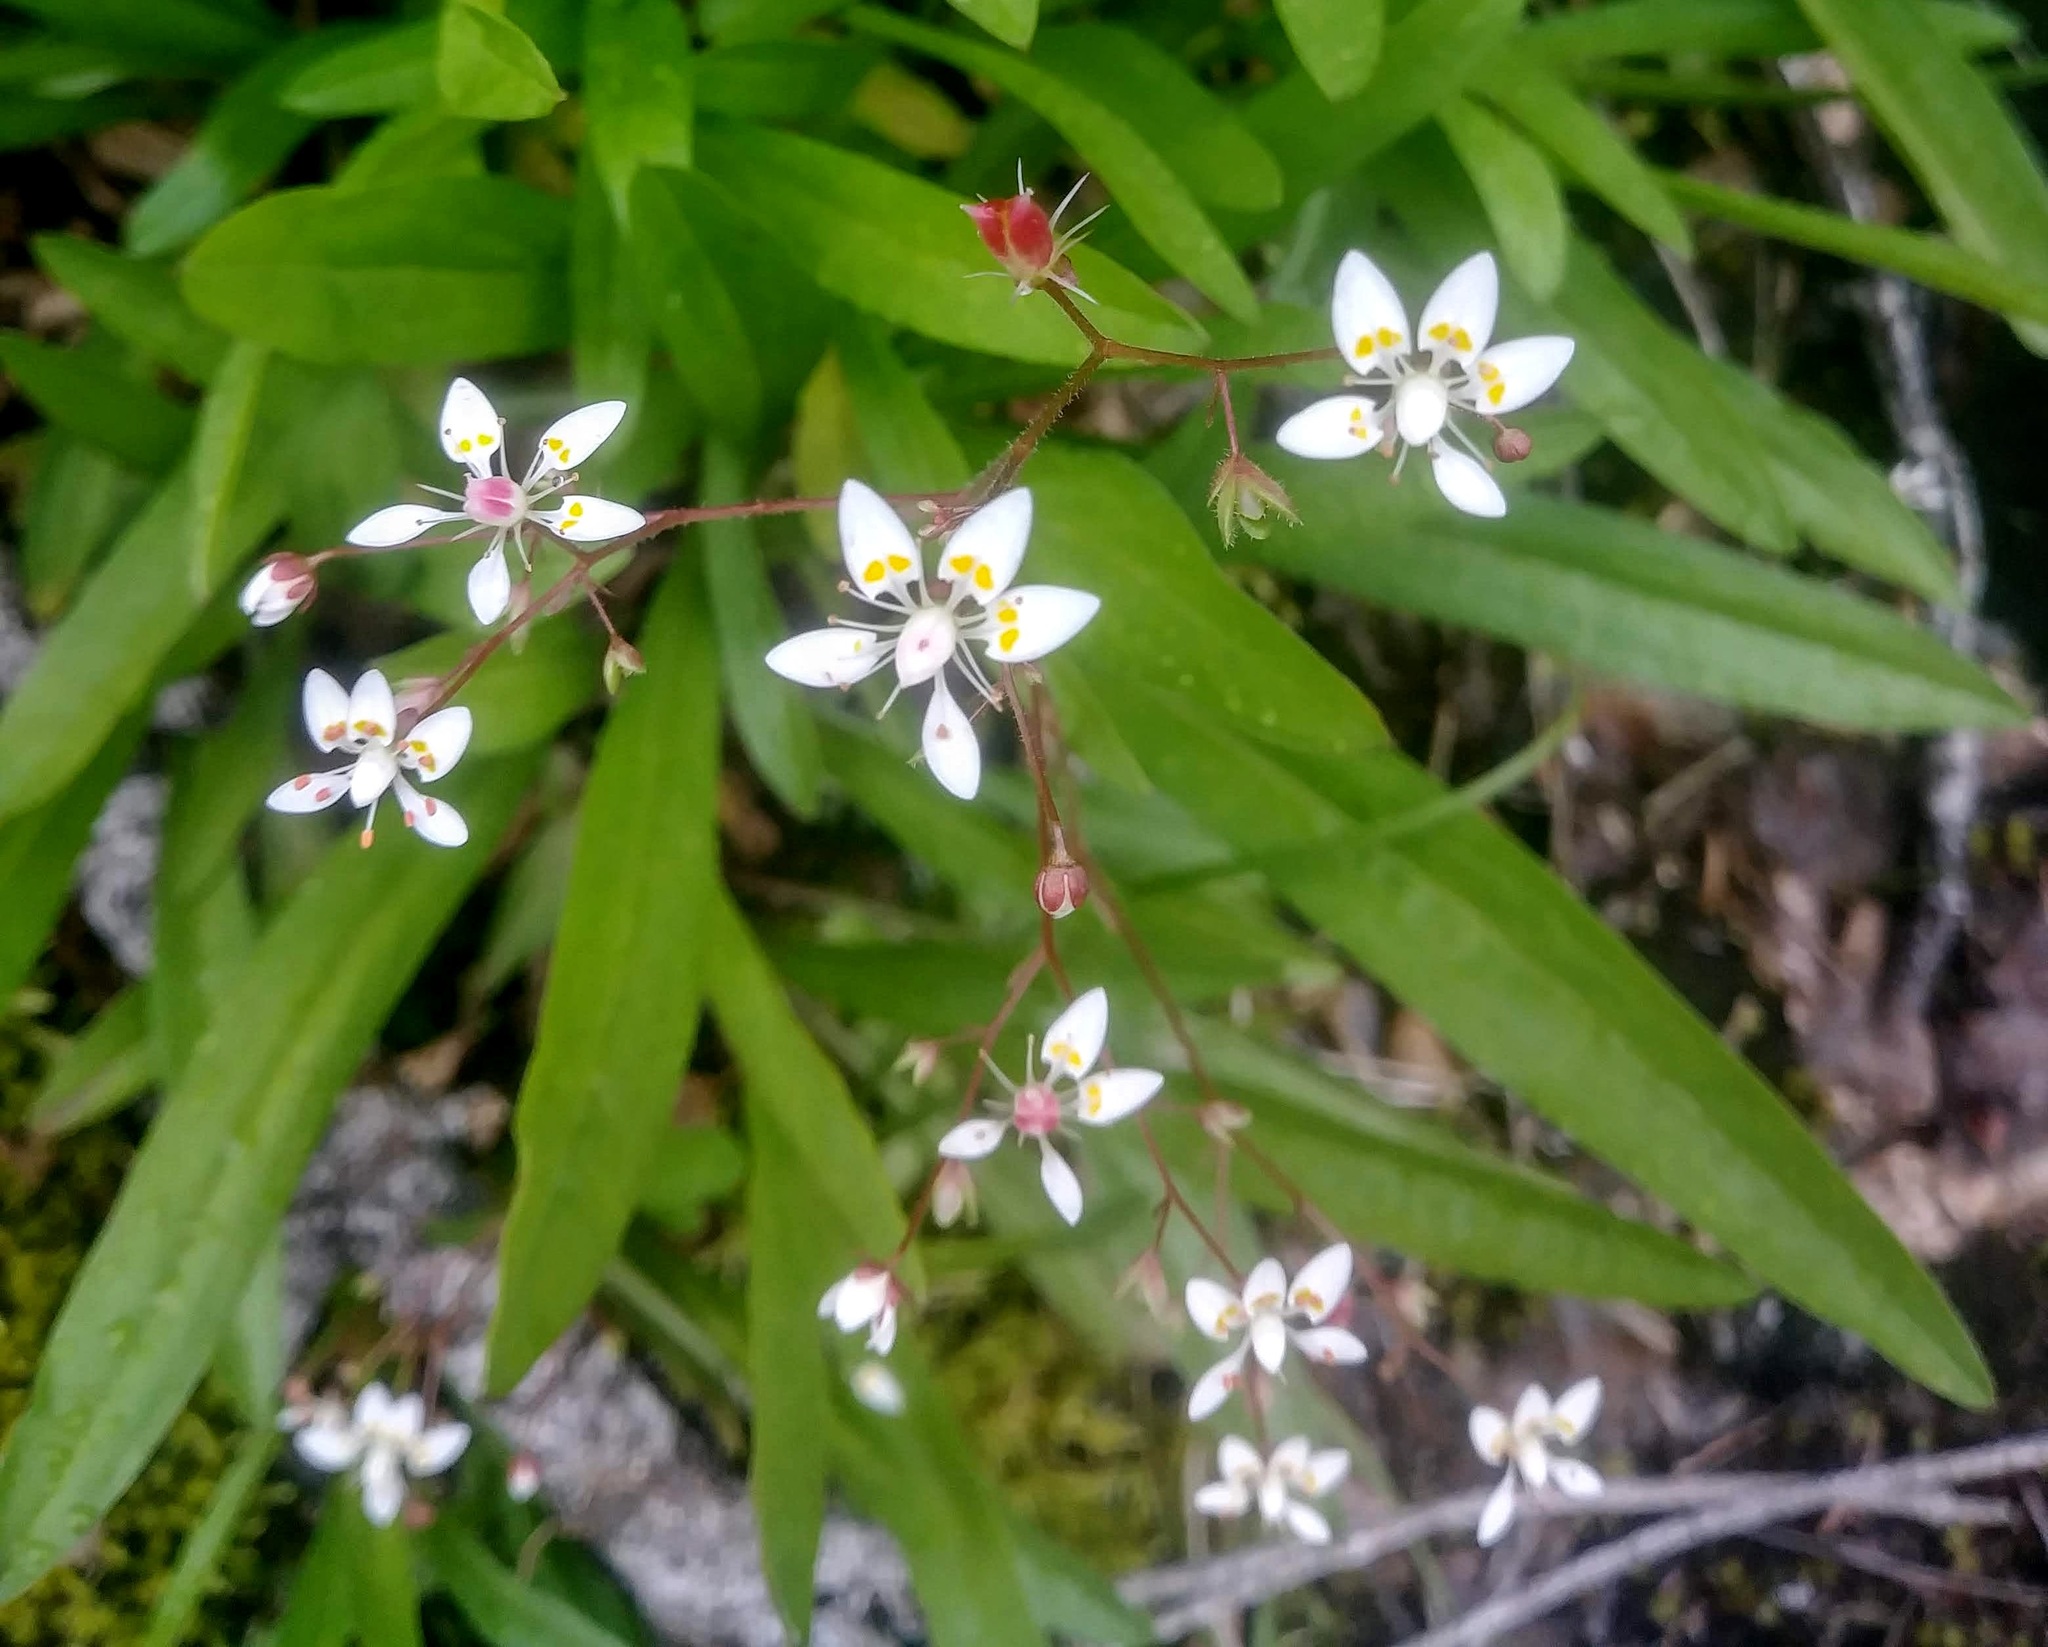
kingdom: Plantae
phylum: Tracheophyta
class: Magnoliopsida
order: Saxifragales
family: Saxifragaceae
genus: Micranthes
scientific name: Micranthes ferruginea
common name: Rusty saxifrage
